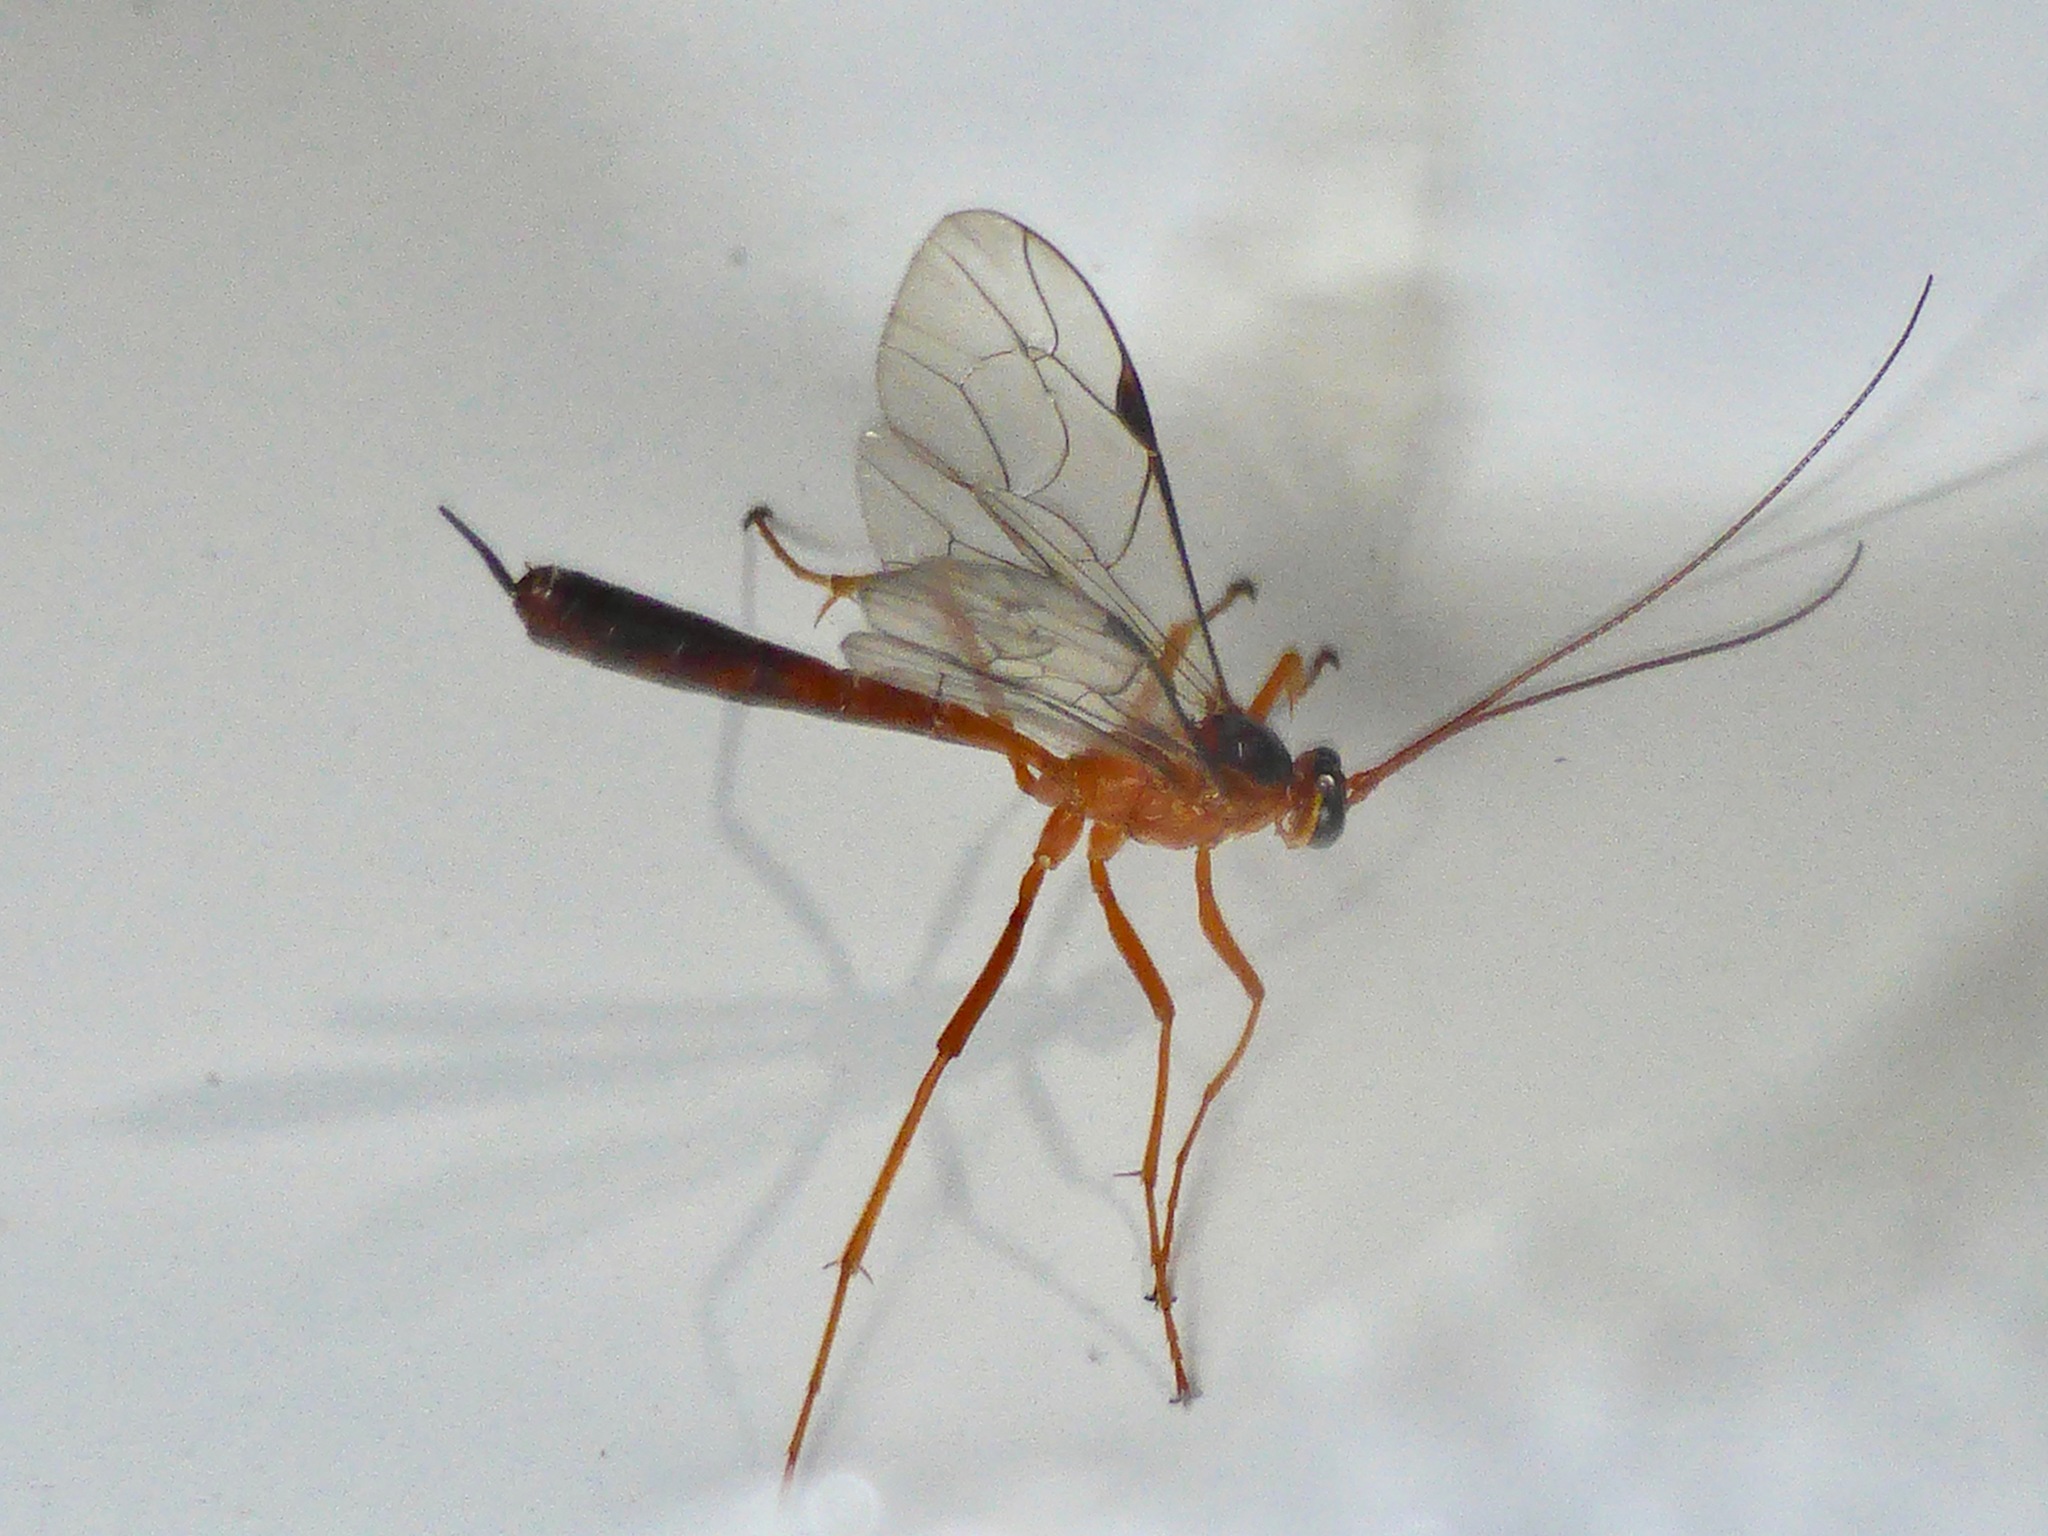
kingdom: Animalia
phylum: Arthropoda
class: Insecta
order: Hymenoptera
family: Ichneumonidae
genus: Netelia
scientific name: Netelia ephippiata
